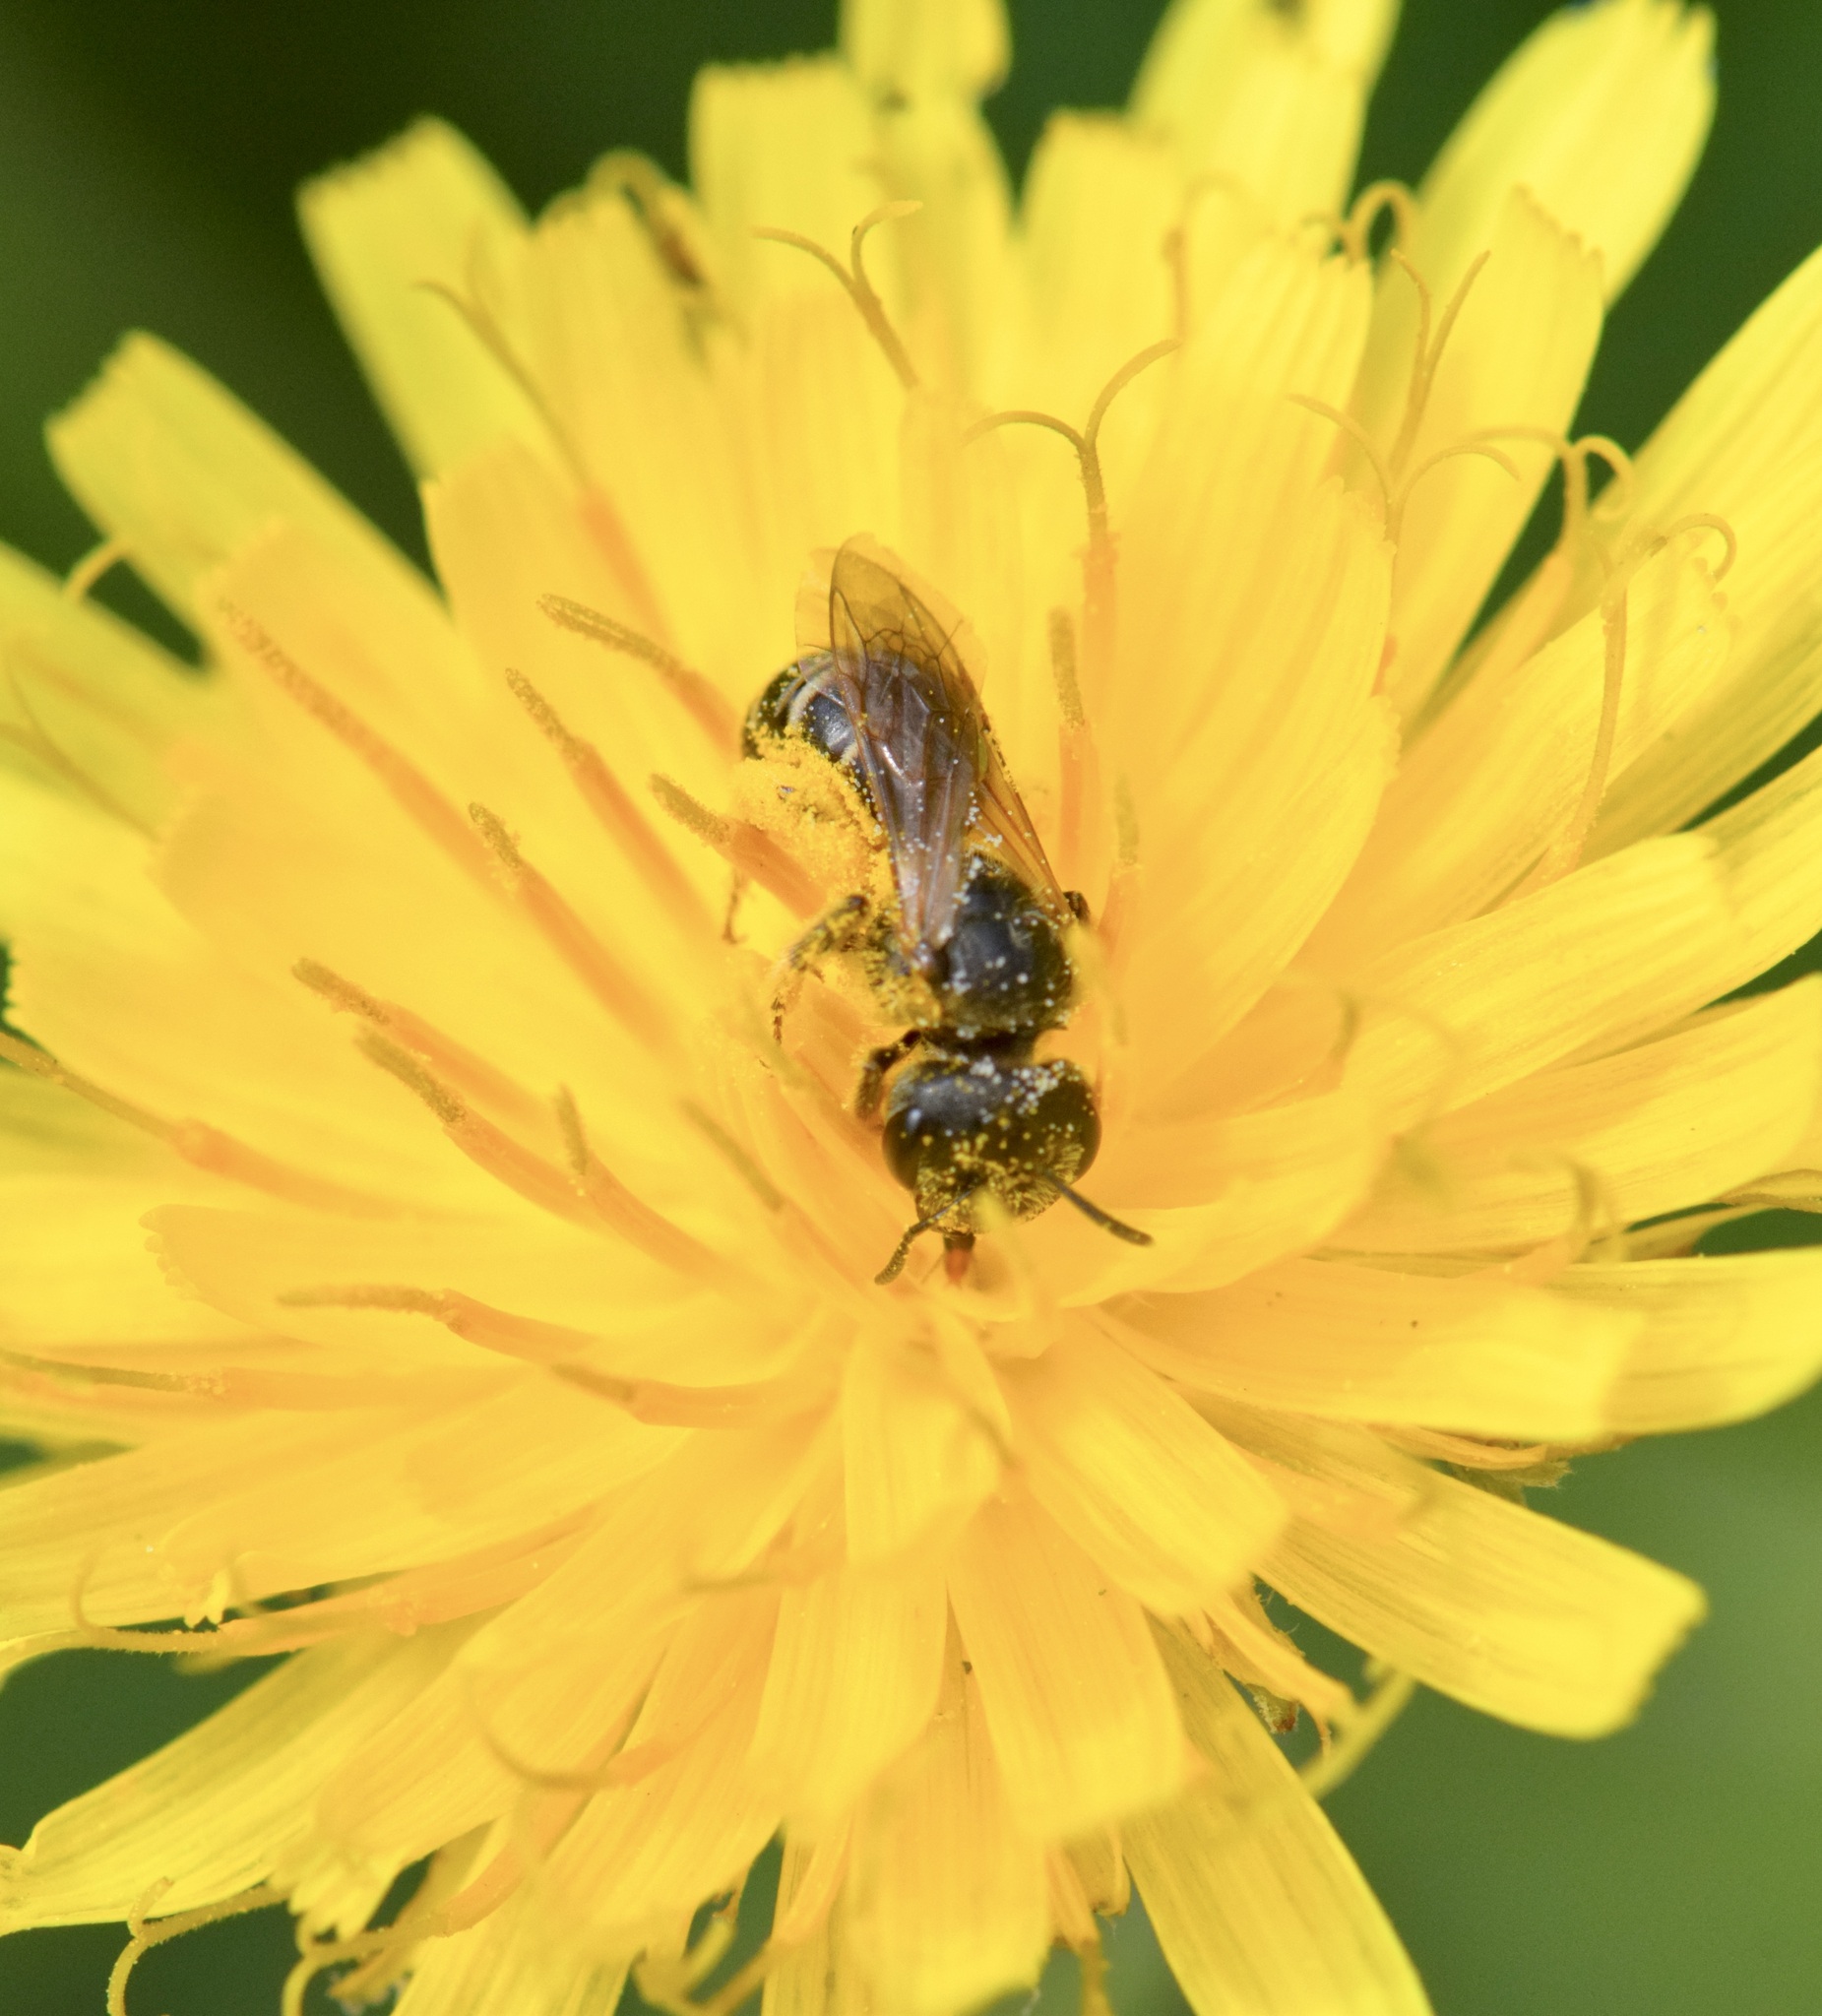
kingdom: Animalia
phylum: Arthropoda
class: Insecta
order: Hymenoptera
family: Halictidae
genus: Halictus
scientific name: Halictus ligatus
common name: Ligated furrow bee
